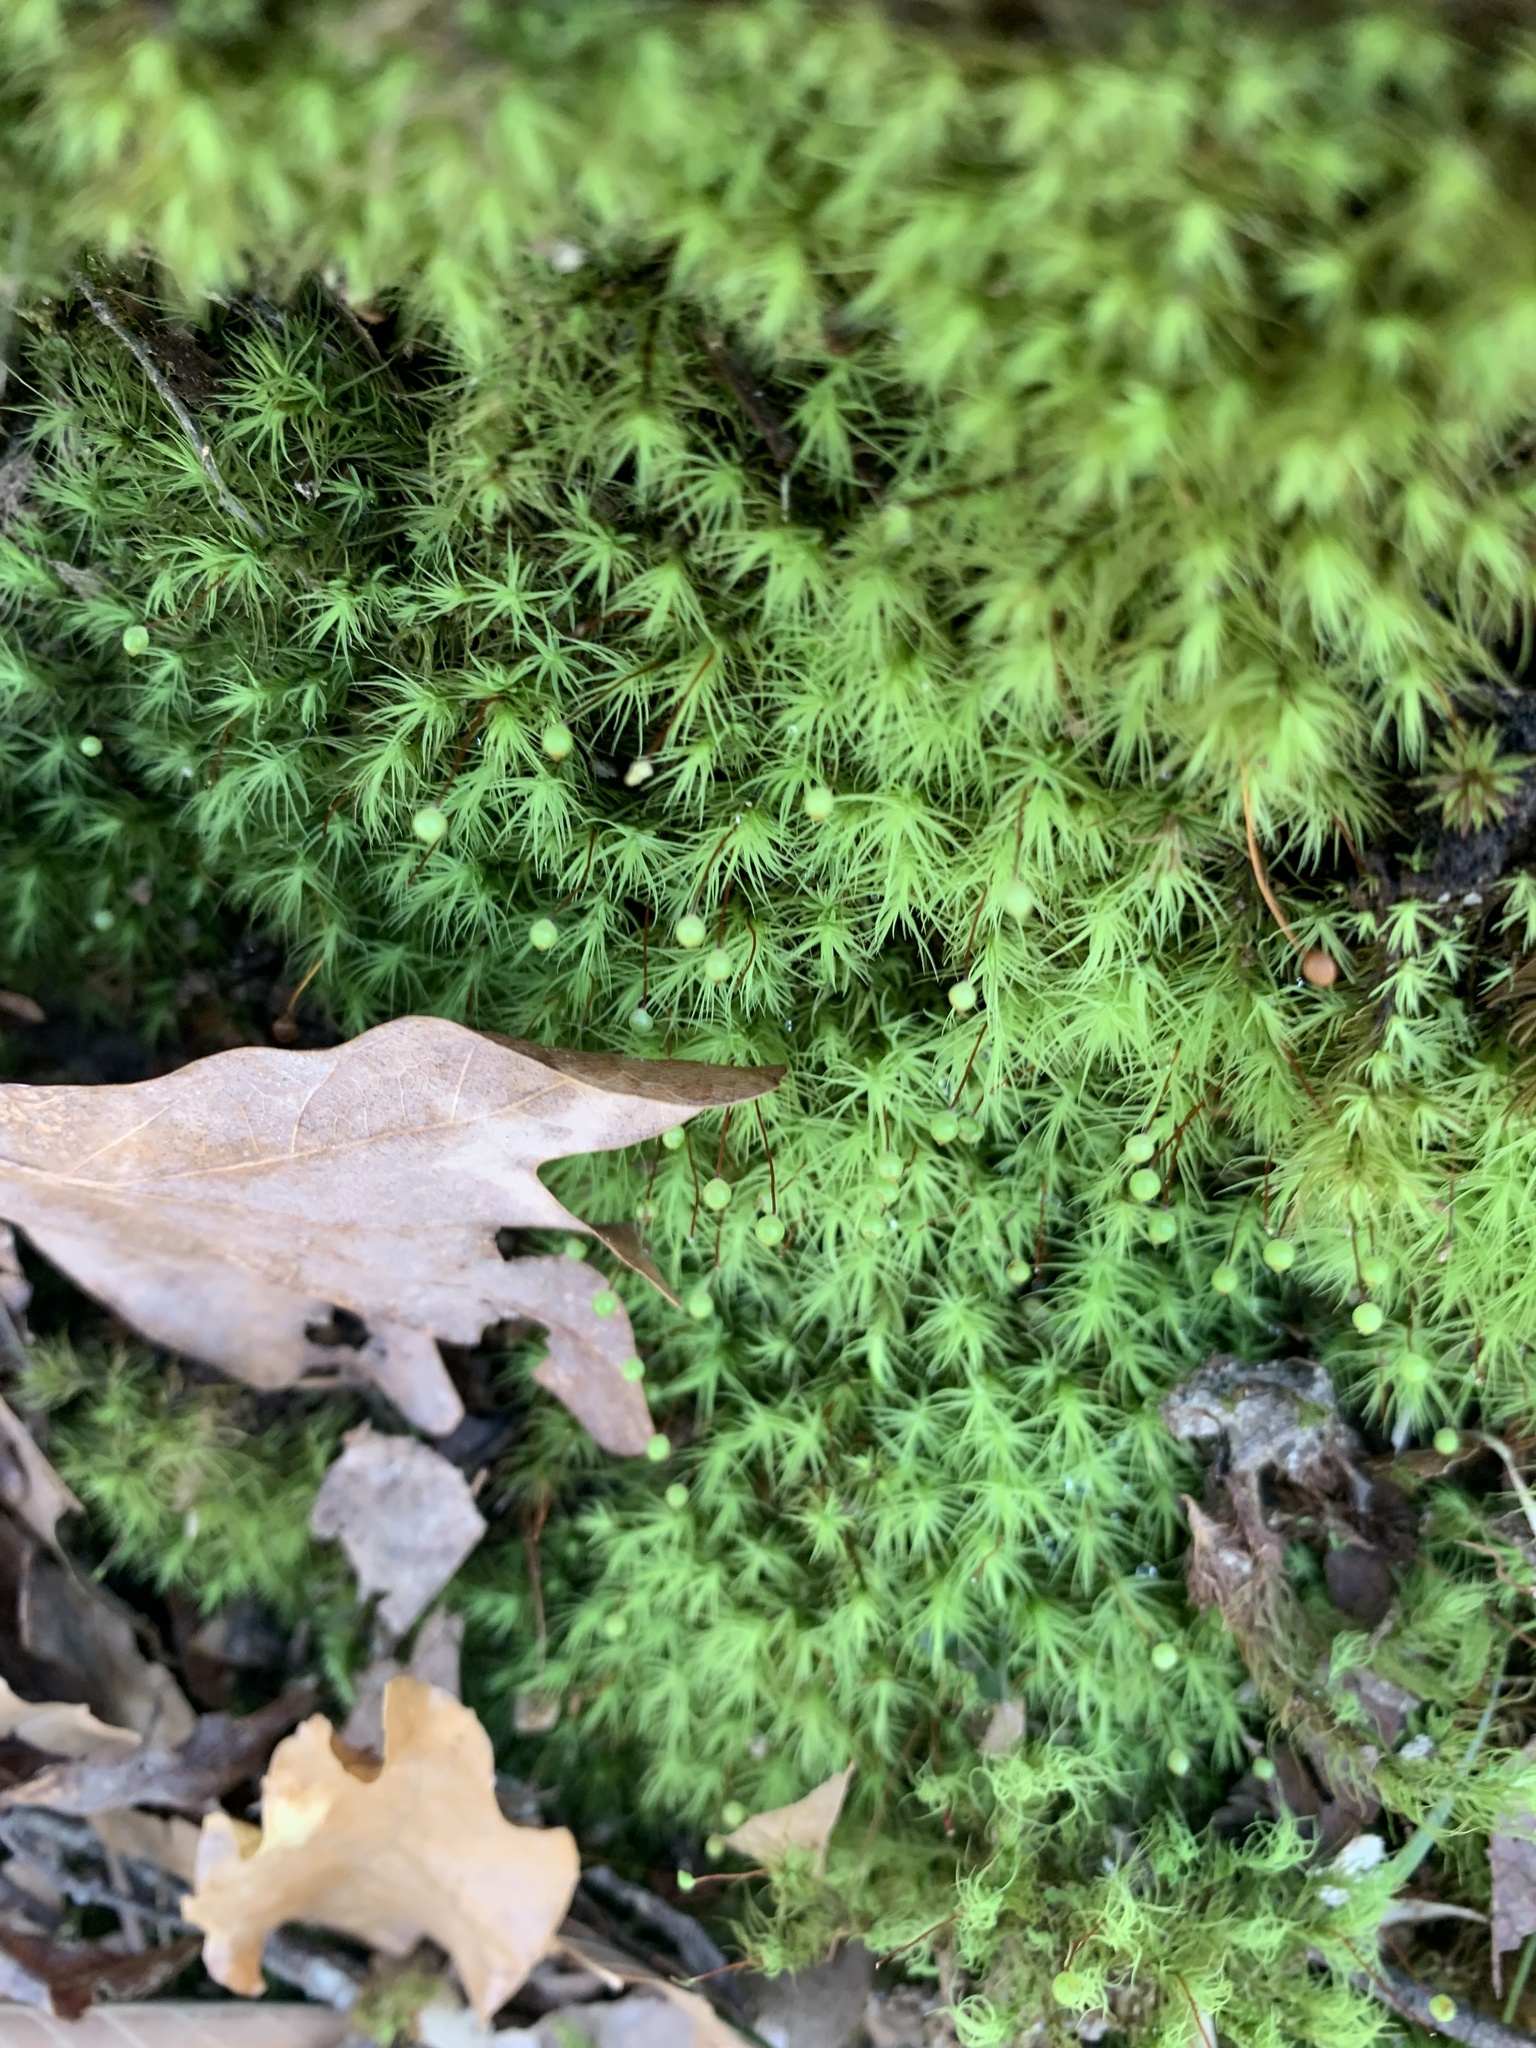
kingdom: Plantae
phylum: Bryophyta
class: Bryopsida
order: Bartramiales
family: Bartramiaceae
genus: Bartramia
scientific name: Bartramia ithyphylla
